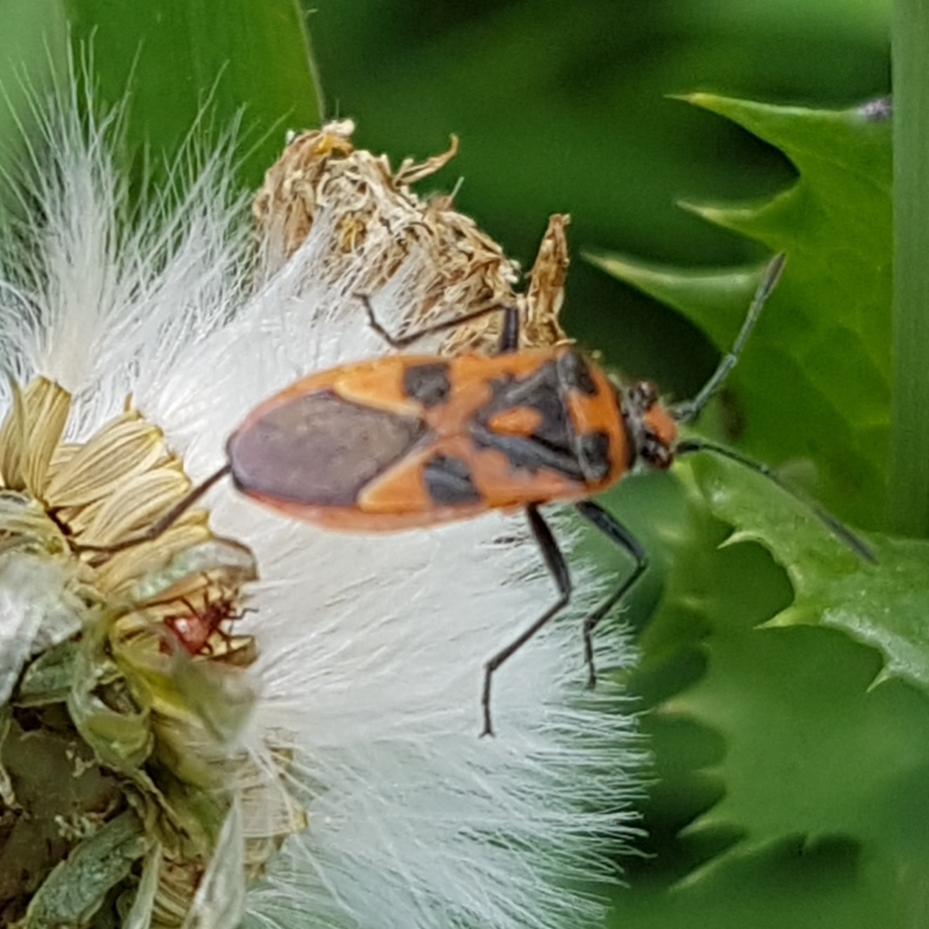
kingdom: Animalia
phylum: Arthropoda
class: Insecta
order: Hemiptera
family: Rhopalidae
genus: Corizus
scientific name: Corizus hyoscyami
